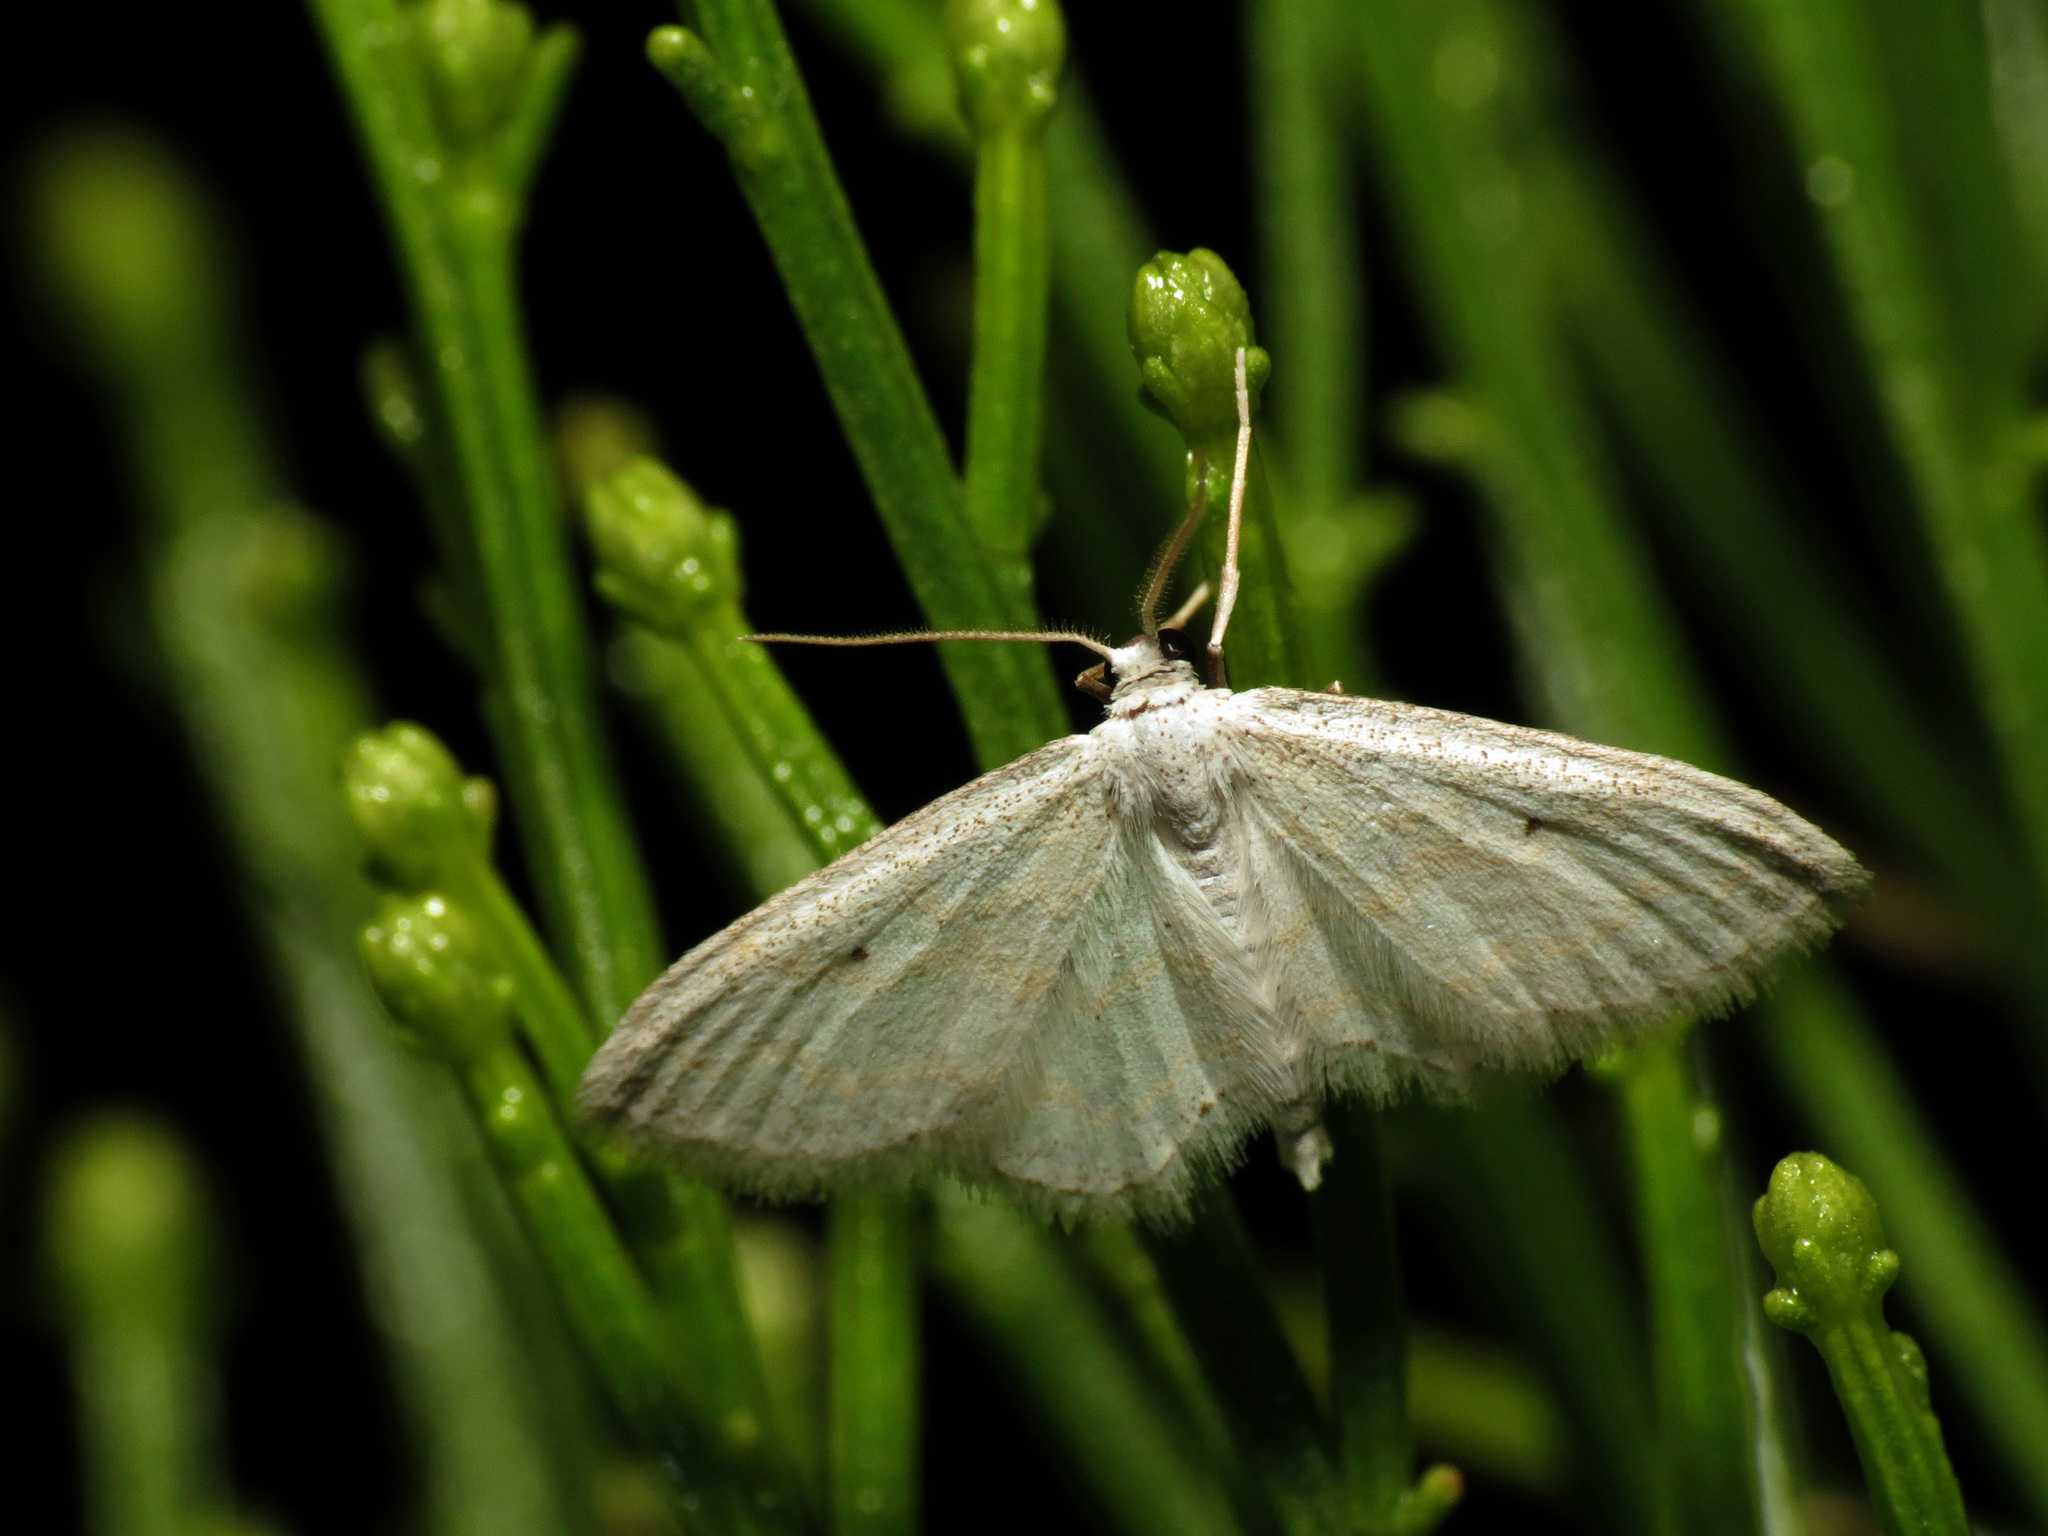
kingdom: Animalia
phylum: Arthropoda
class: Insecta
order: Lepidoptera
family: Geometridae
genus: Lobocleta
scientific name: Lobocleta peralbata
